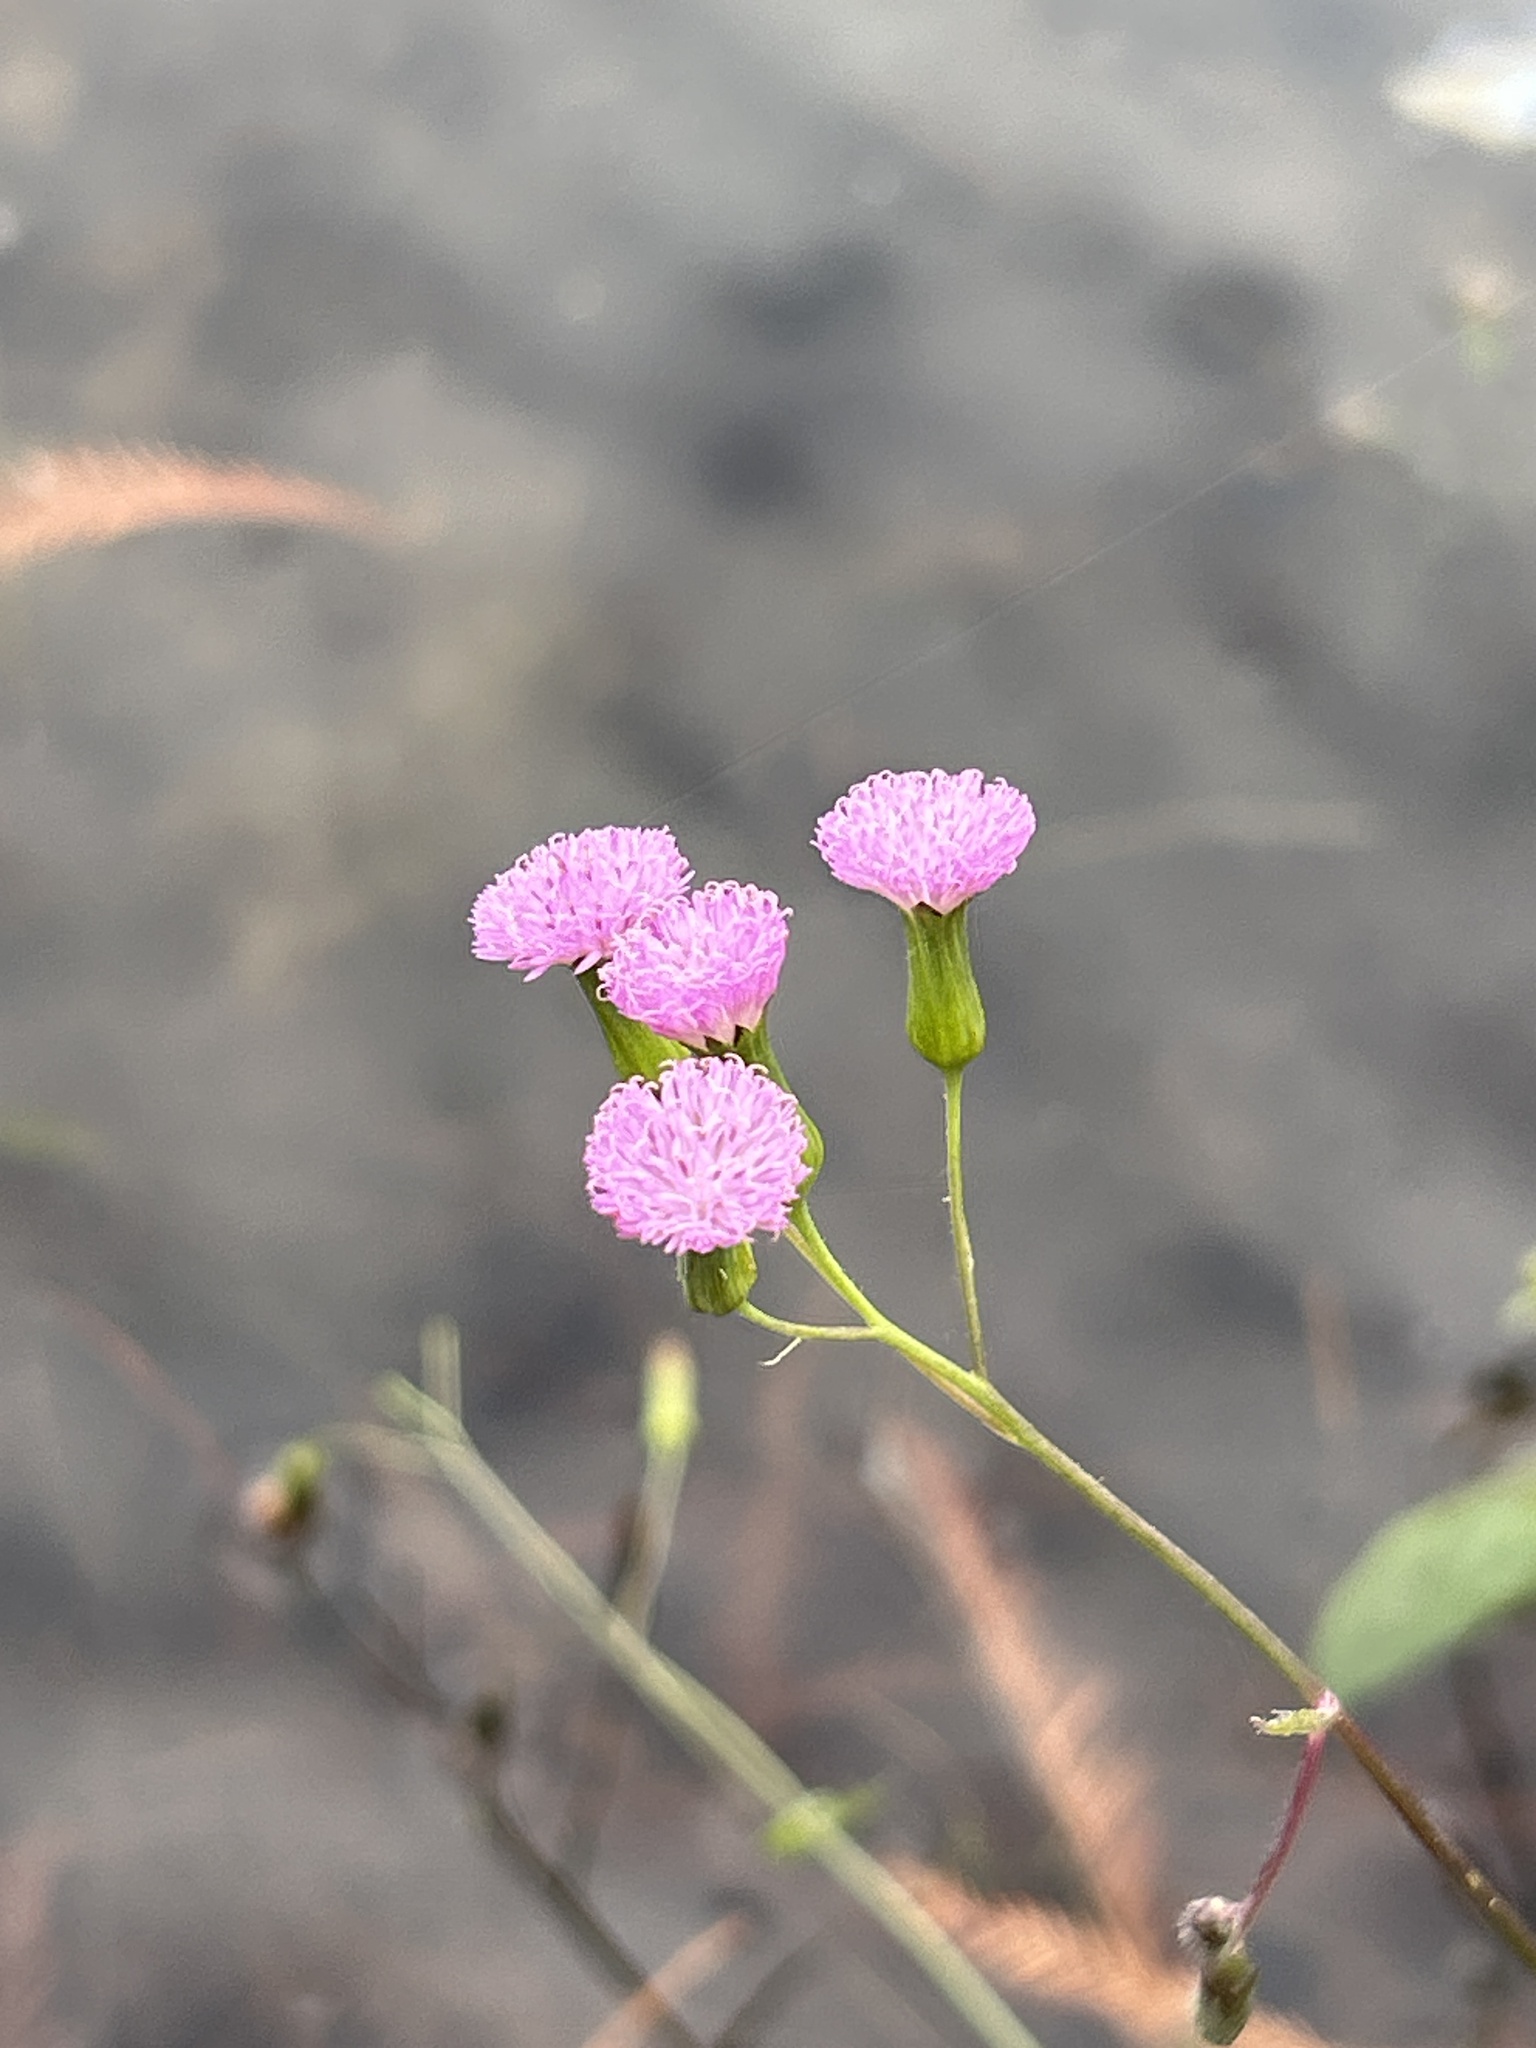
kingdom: Plantae
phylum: Tracheophyta
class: Magnoliopsida
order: Asterales
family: Asteraceae
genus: Emilia
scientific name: Emilia sonchifolia
